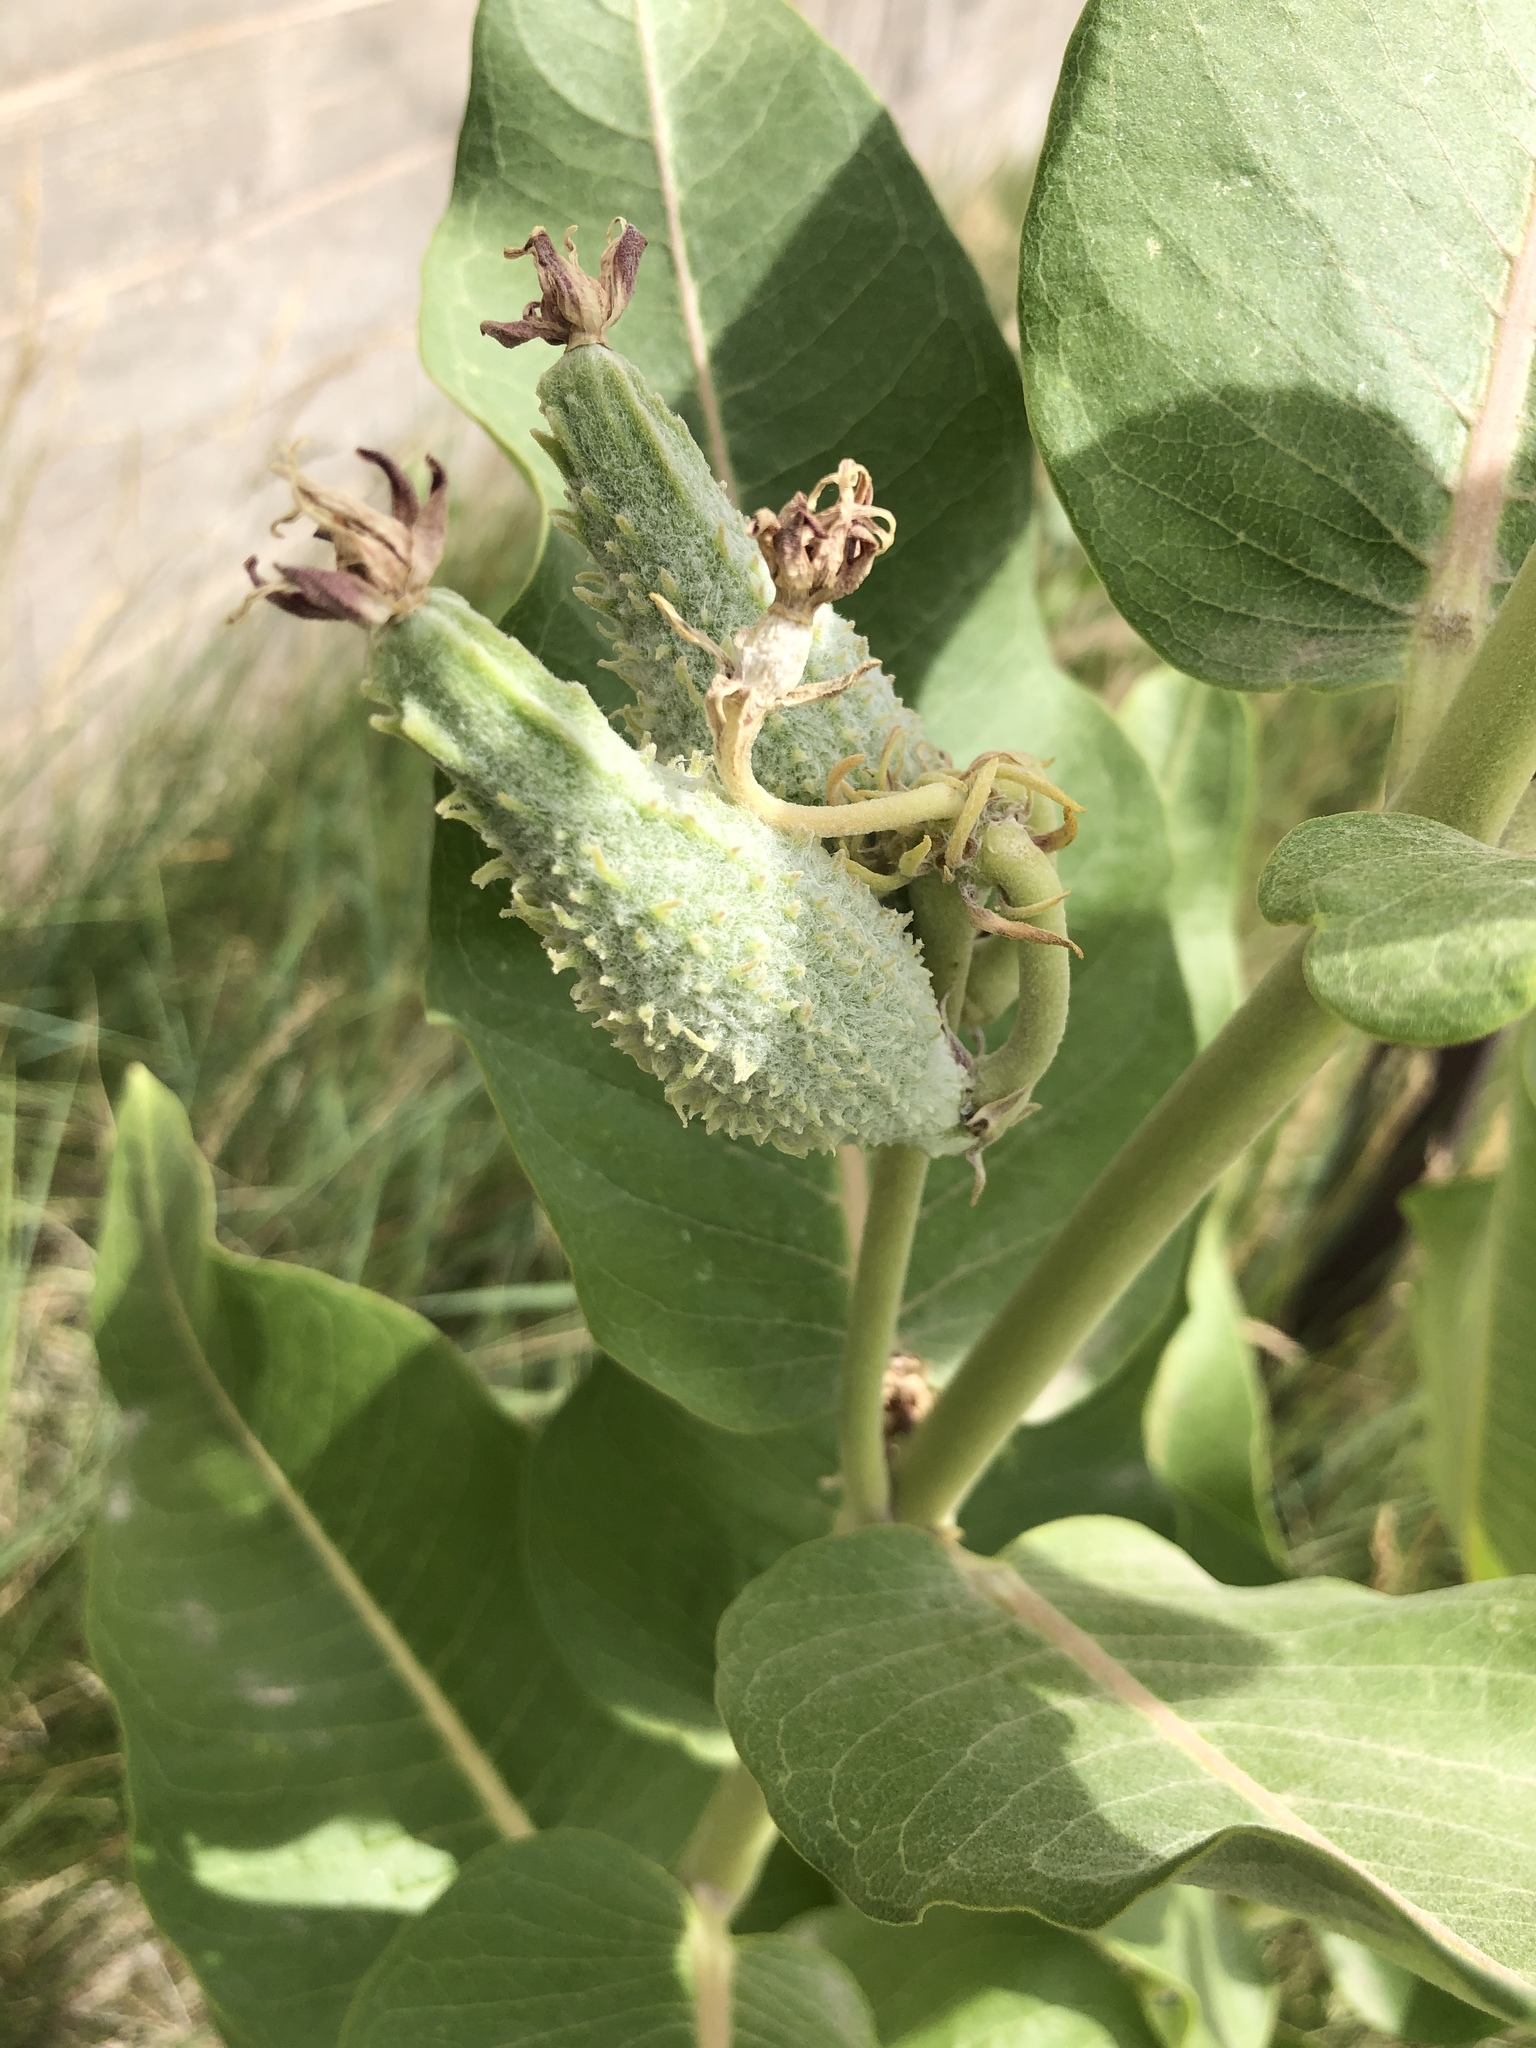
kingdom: Plantae
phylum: Tracheophyta
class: Magnoliopsida
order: Gentianales
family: Apocynaceae
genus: Asclepias
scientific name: Asclepias speciosa
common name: Showy milkweed
